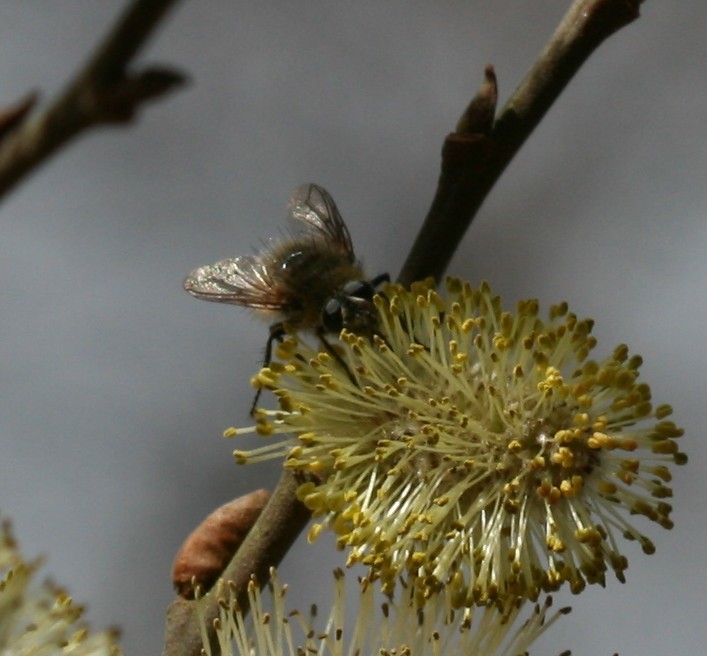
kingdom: Animalia
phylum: Arthropoda
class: Insecta
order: Diptera
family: Tachinidae
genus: Tachina
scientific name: Tachina ursina
